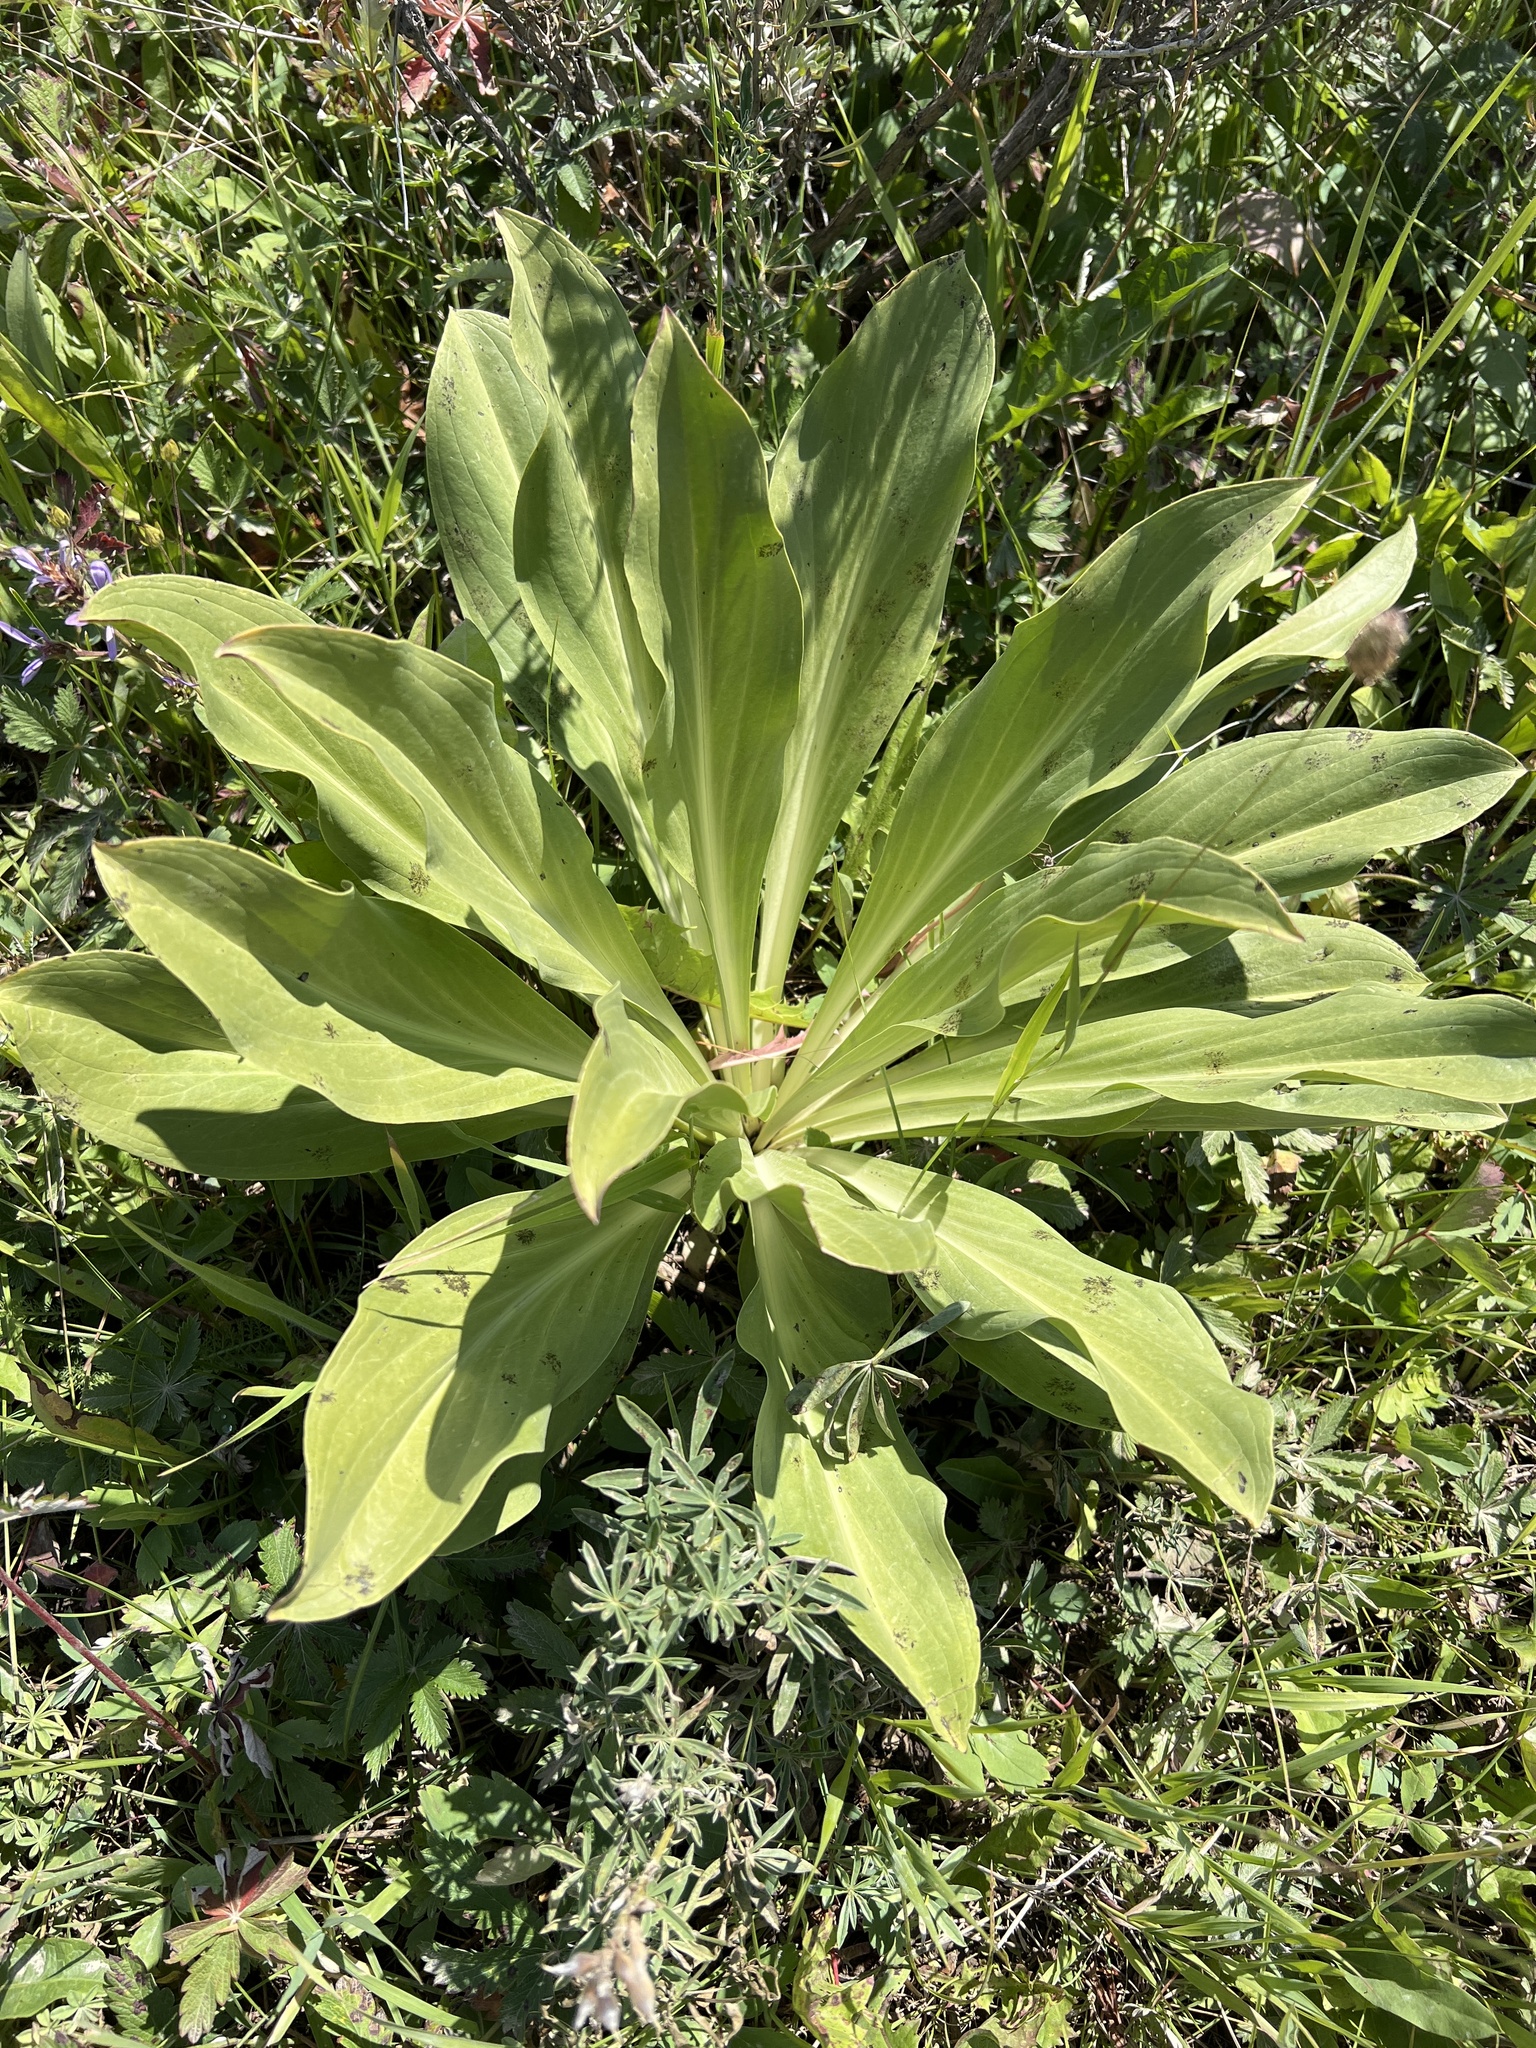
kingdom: Plantae
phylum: Tracheophyta
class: Magnoliopsida
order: Gentianales
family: Gentianaceae
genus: Frasera
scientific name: Frasera speciosa
